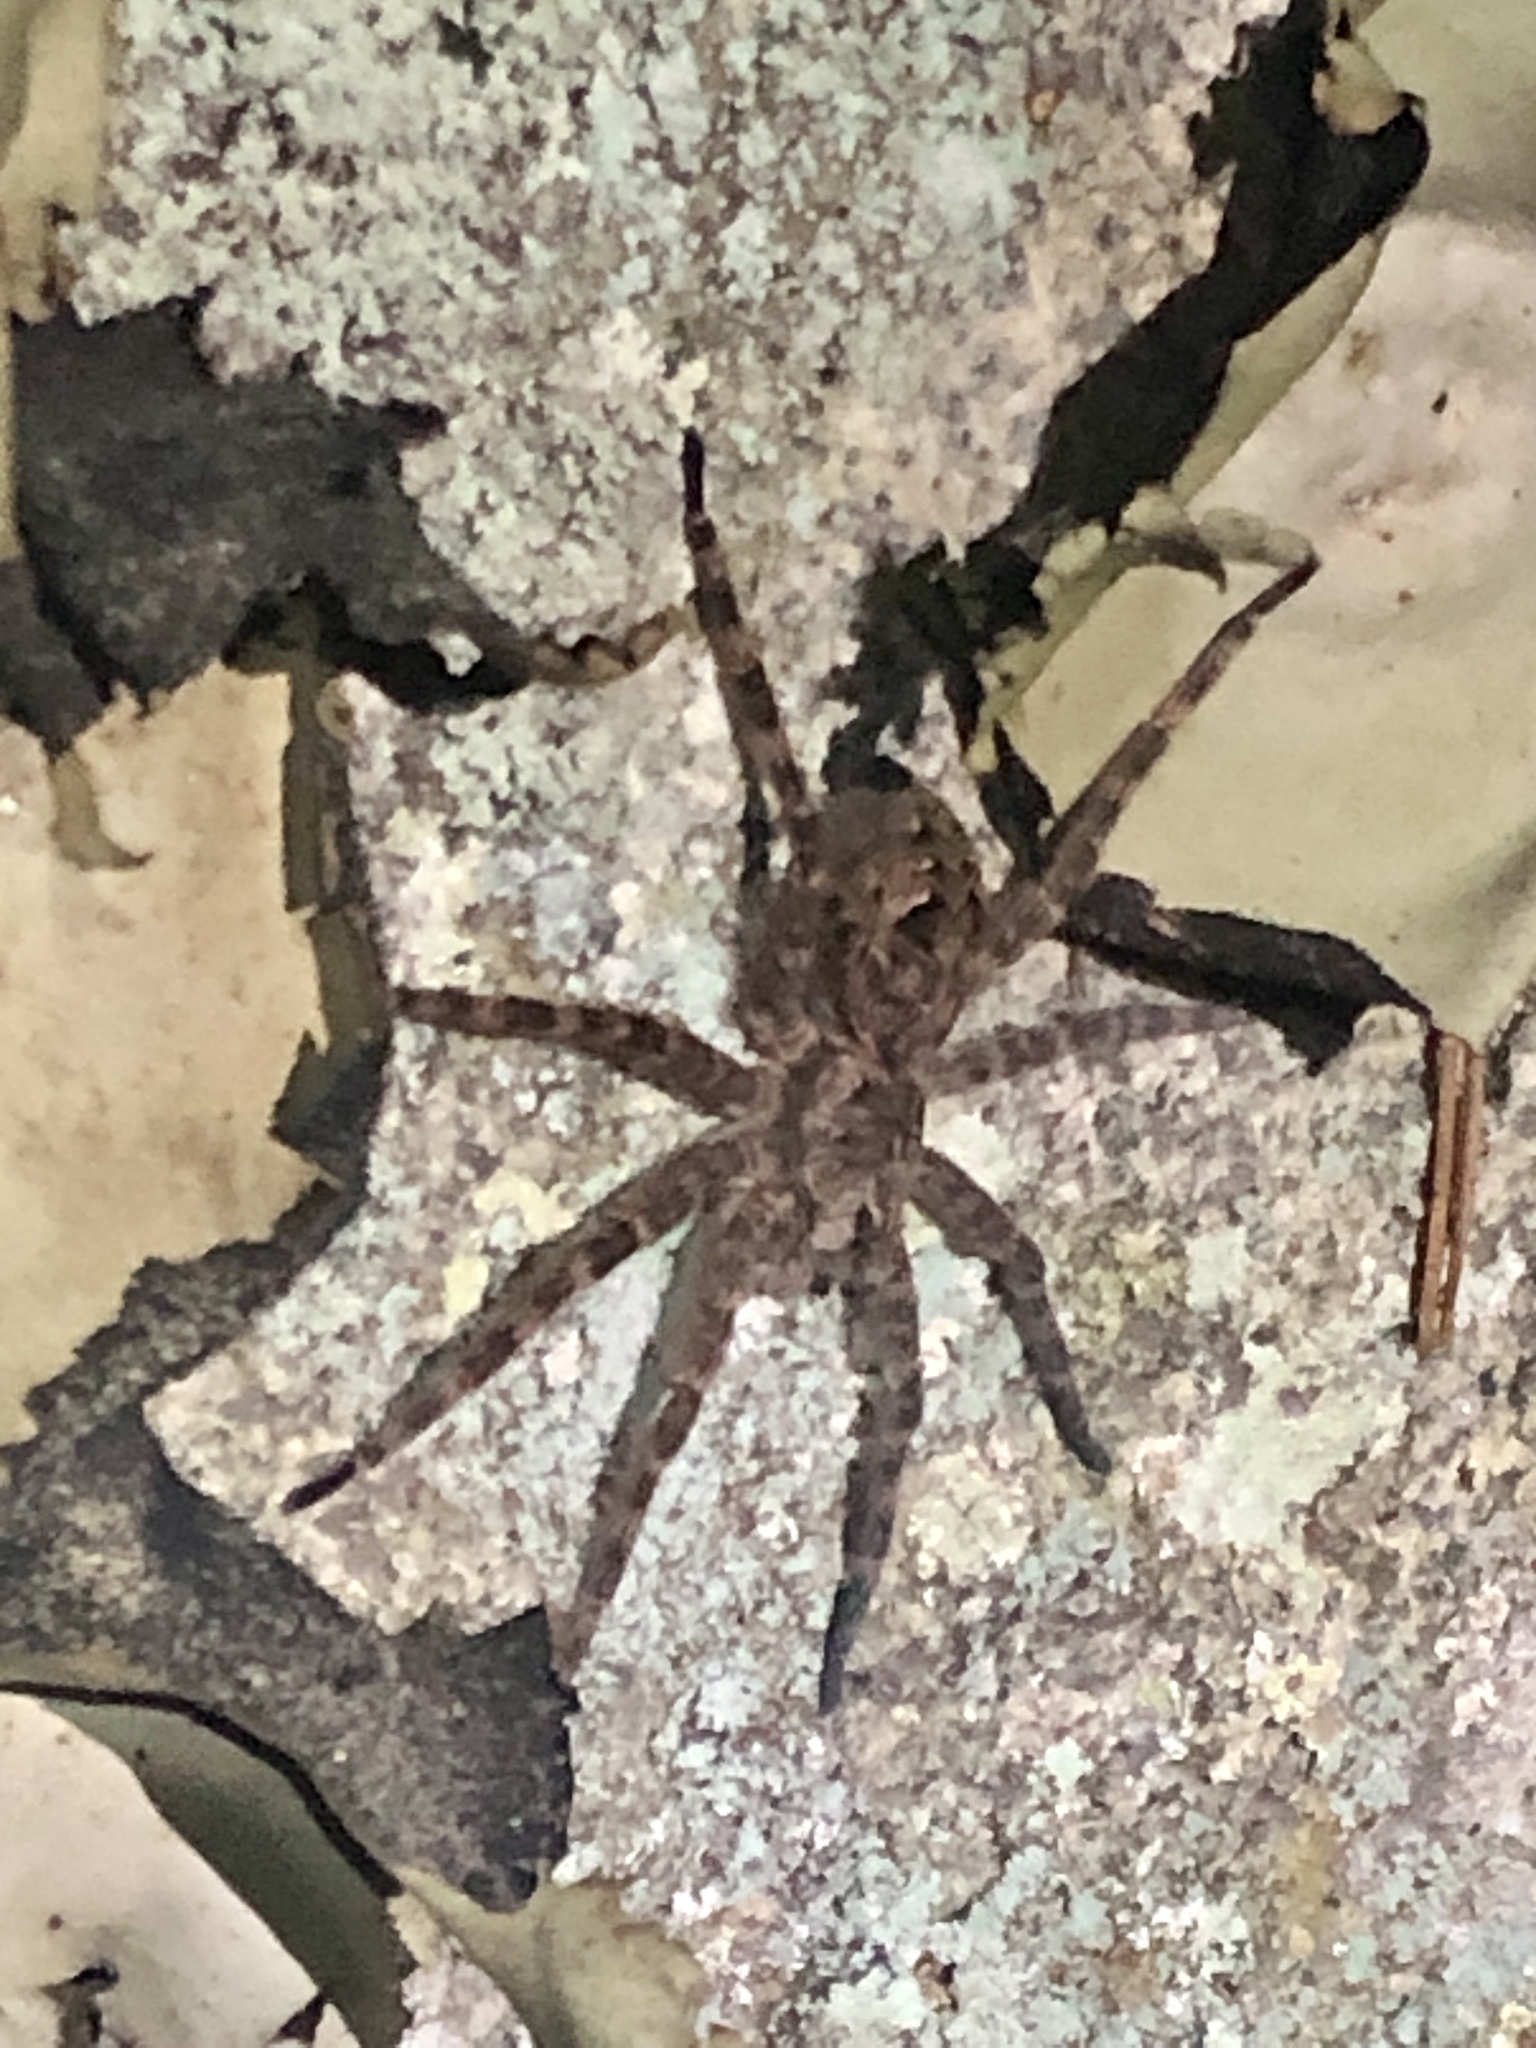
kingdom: Animalia
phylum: Arthropoda
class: Arachnida
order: Araneae
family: Pisauridae
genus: Dolomedes
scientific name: Dolomedes tenebrosus
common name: Dark fishing spider
